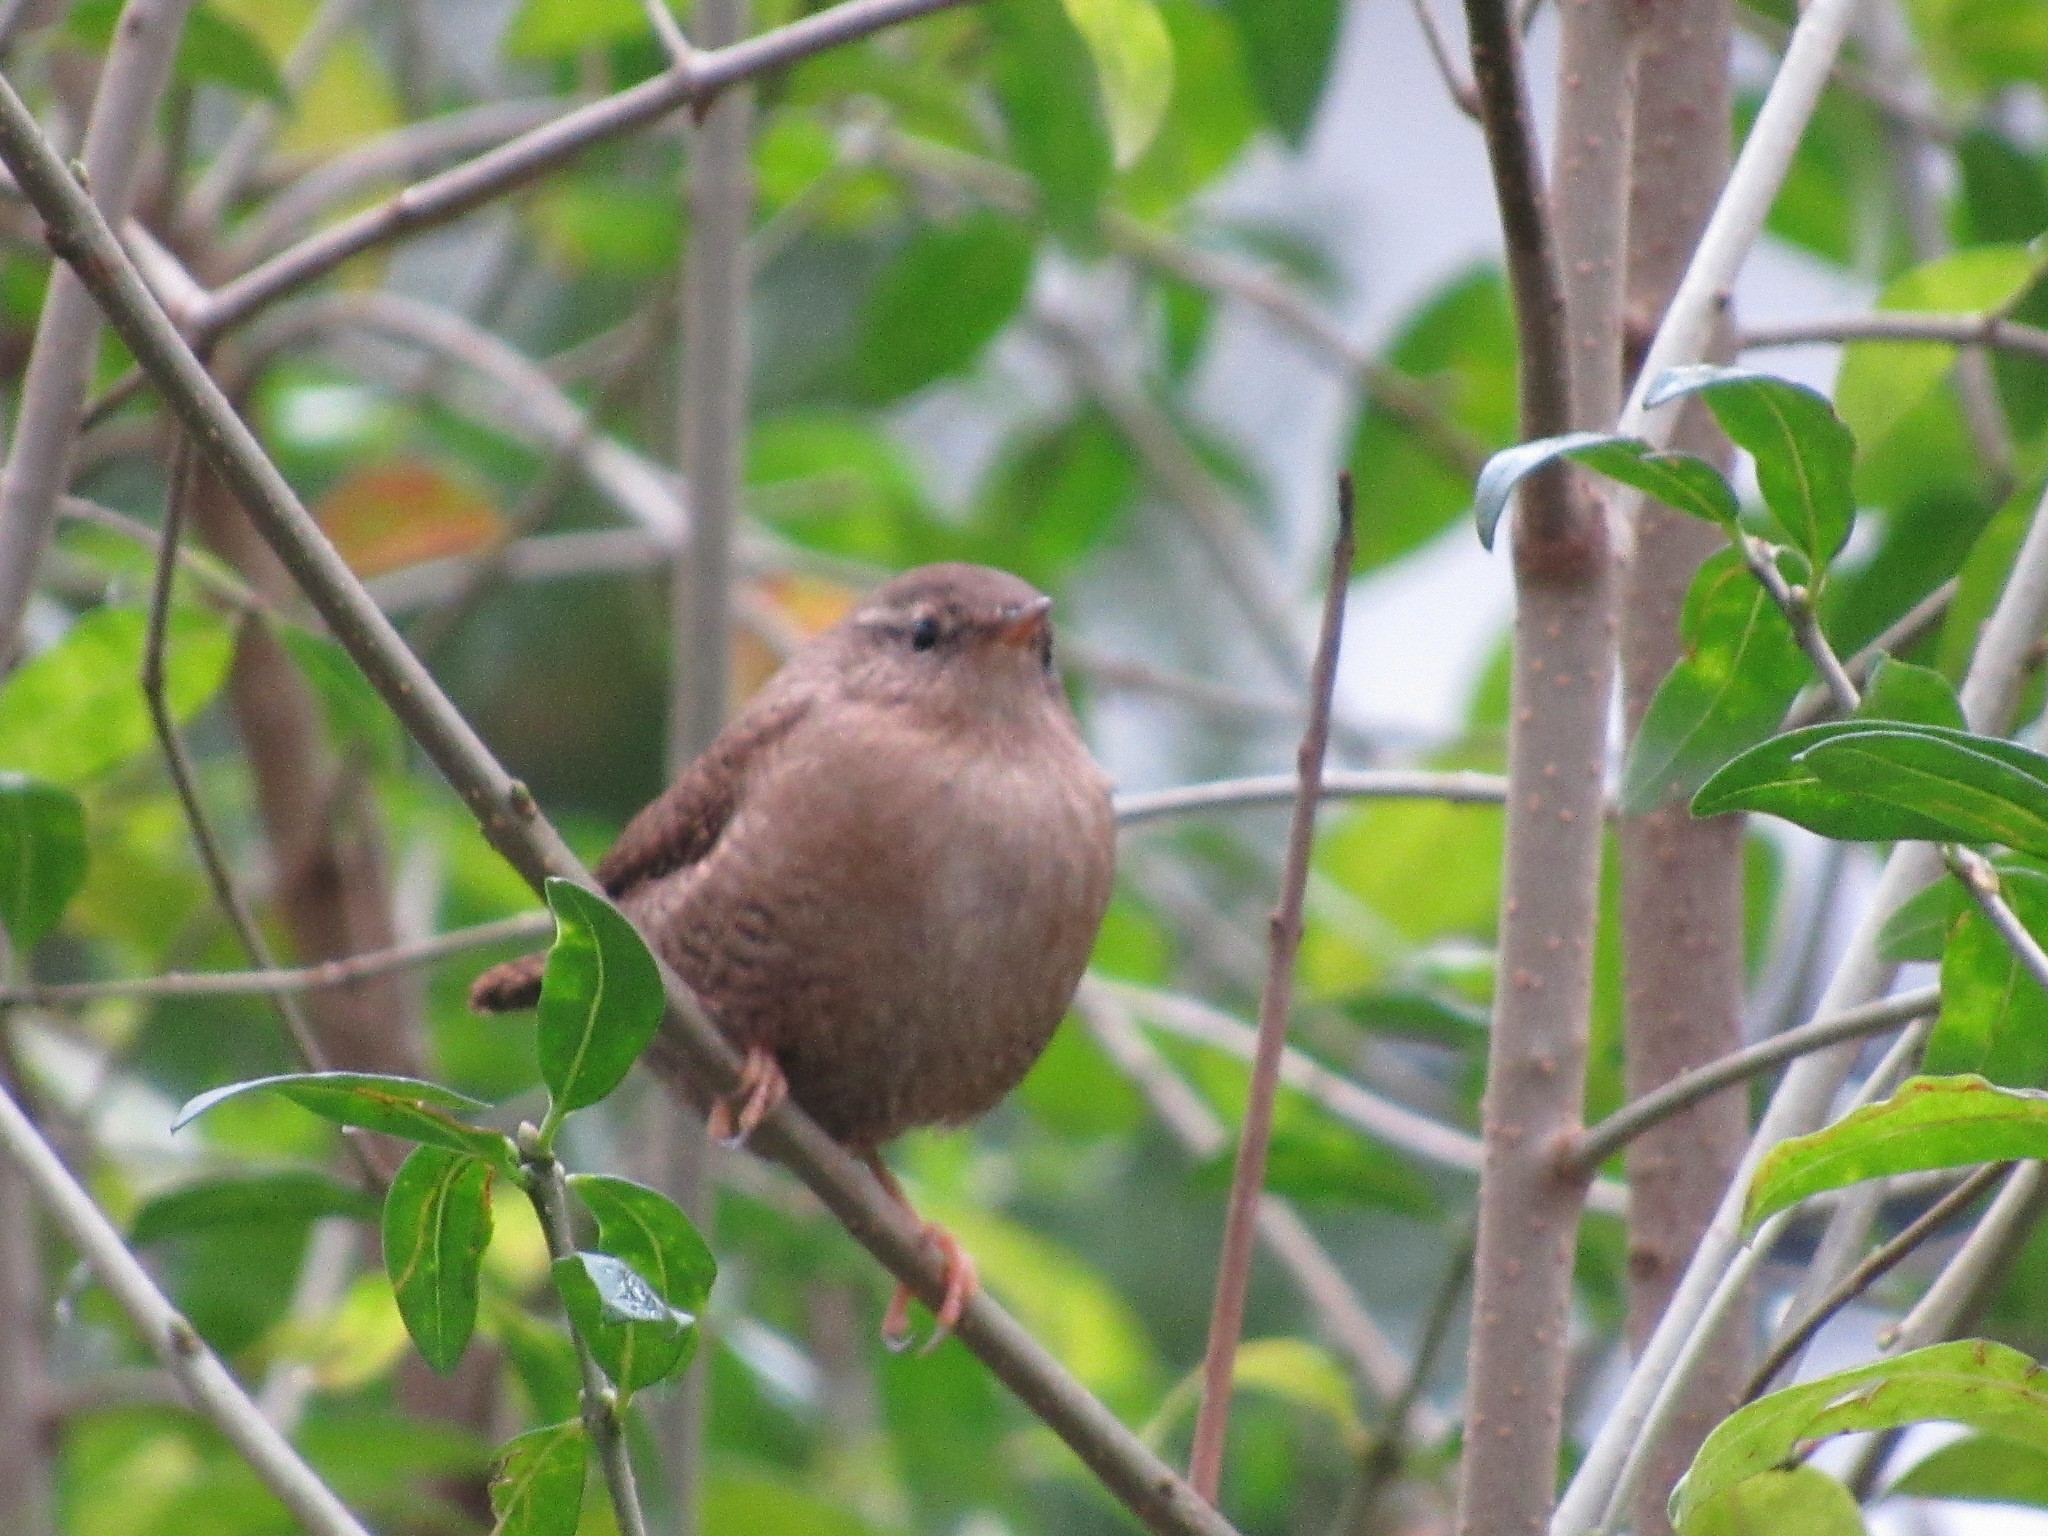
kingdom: Animalia
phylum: Chordata
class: Aves
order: Passeriformes
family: Troglodytidae
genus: Troglodytes
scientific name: Troglodytes troglodytes
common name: Eurasian wren
